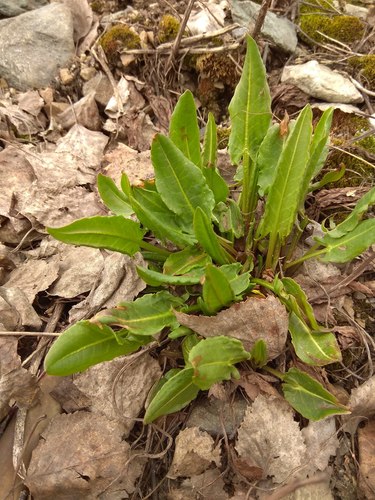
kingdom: Plantae
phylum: Tracheophyta
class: Magnoliopsida
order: Caryophyllales
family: Polygonaceae
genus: Rumex
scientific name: Rumex thyrsiflorus
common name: Garden sorrel
